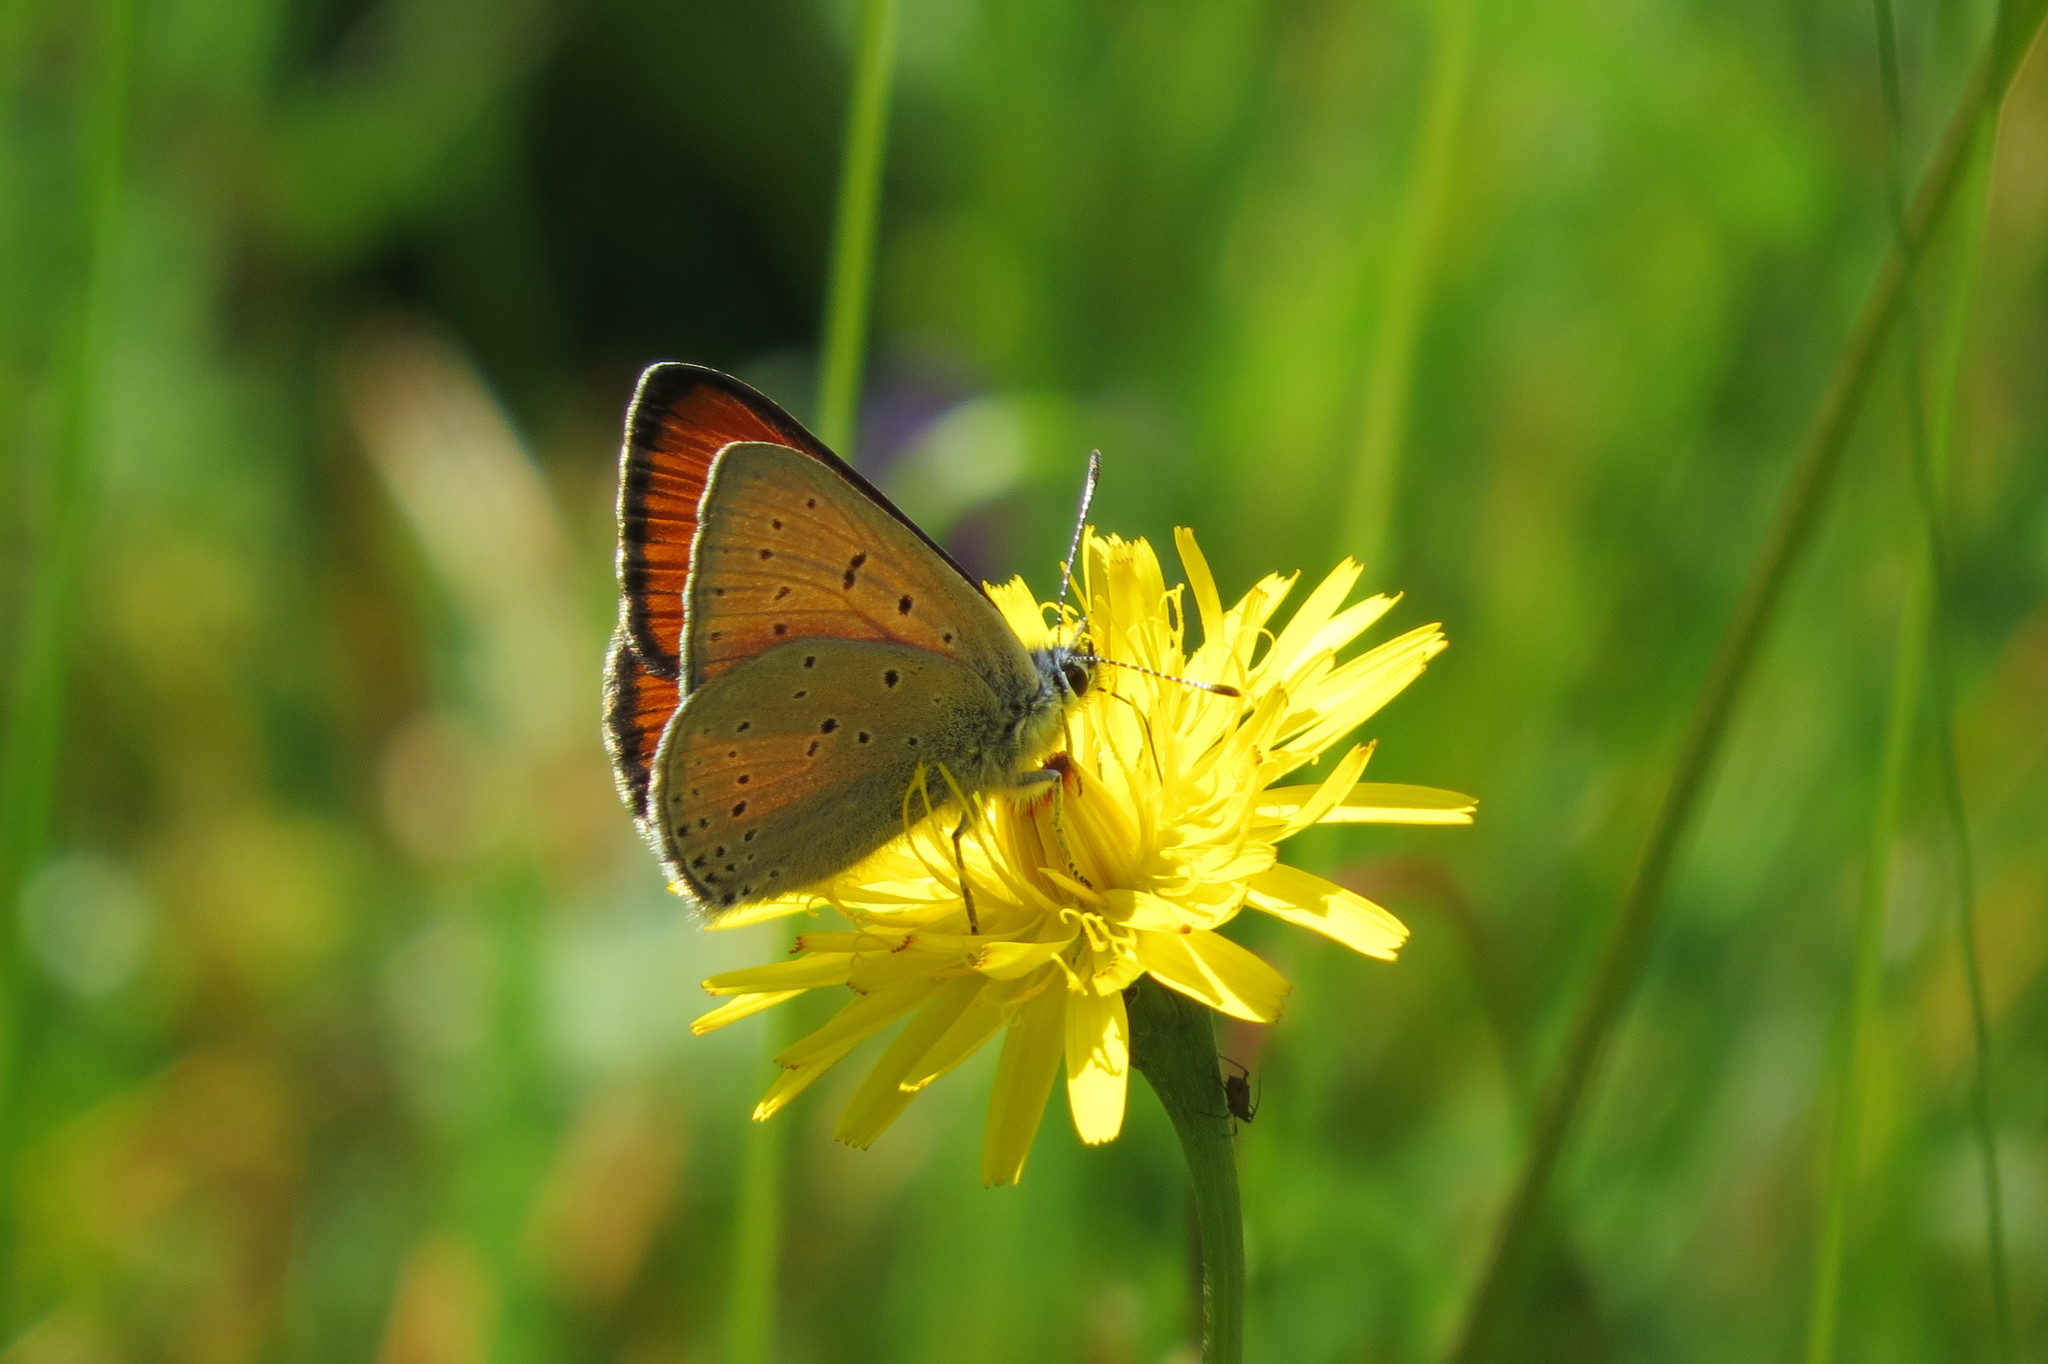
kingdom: Animalia
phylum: Arthropoda
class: Insecta
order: Lepidoptera
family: Lycaenidae
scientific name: Lycaenidae
